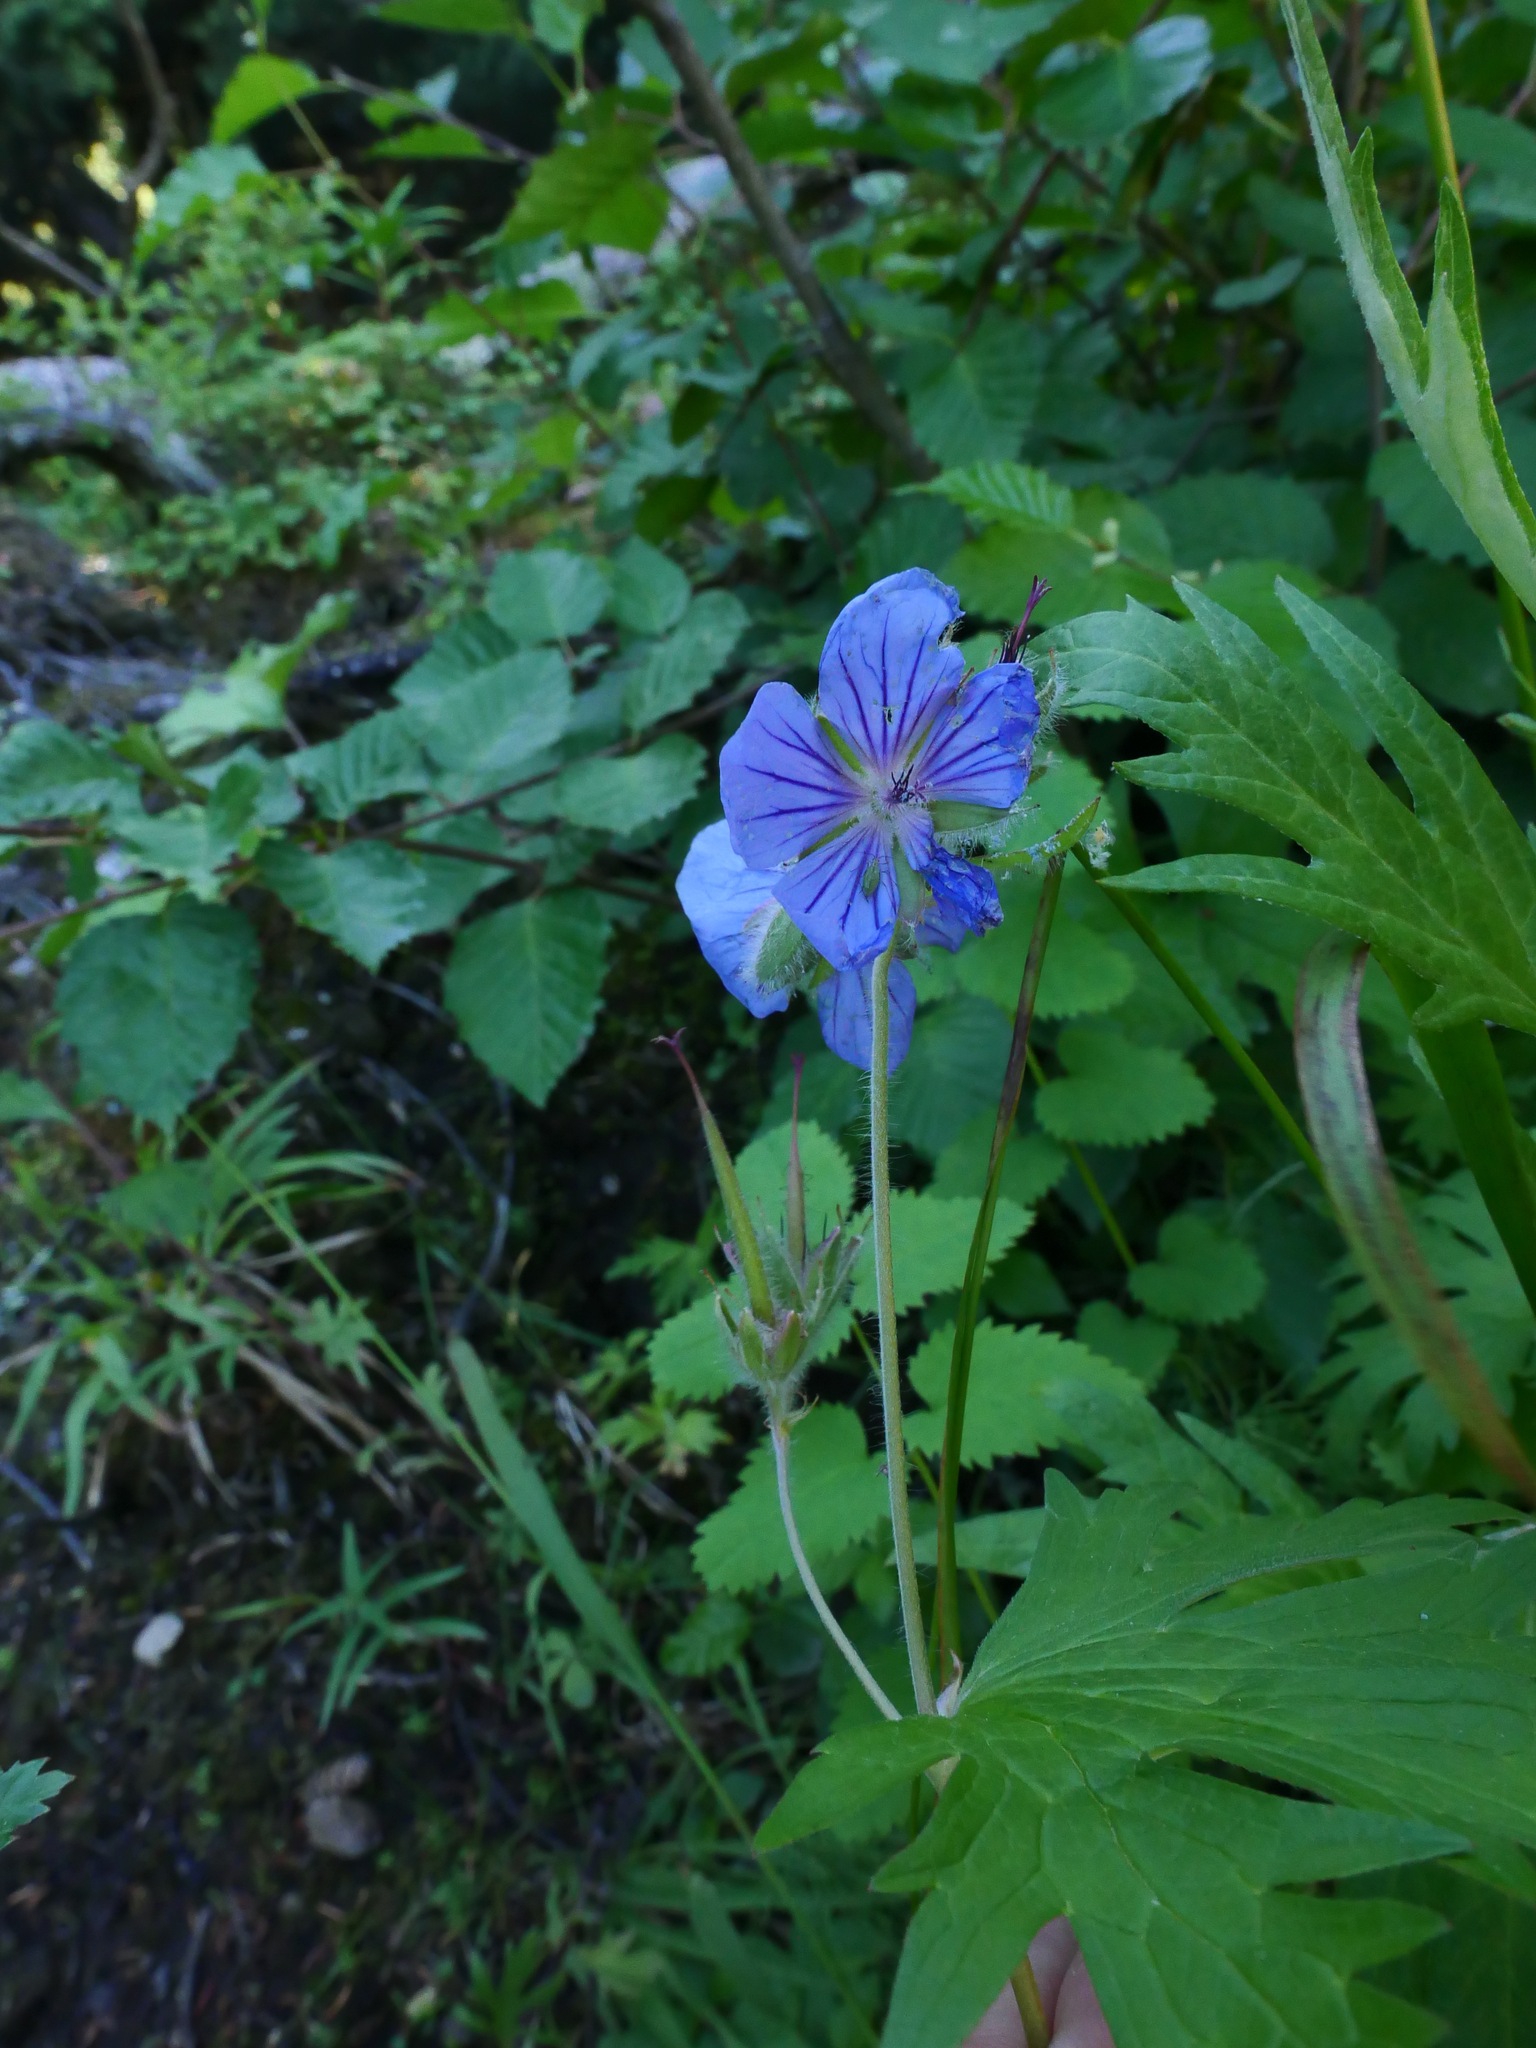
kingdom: Plantae
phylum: Tracheophyta
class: Magnoliopsida
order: Geraniales
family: Geraniaceae
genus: Geranium
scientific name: Geranium erianthum
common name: Northern crane's-bill
